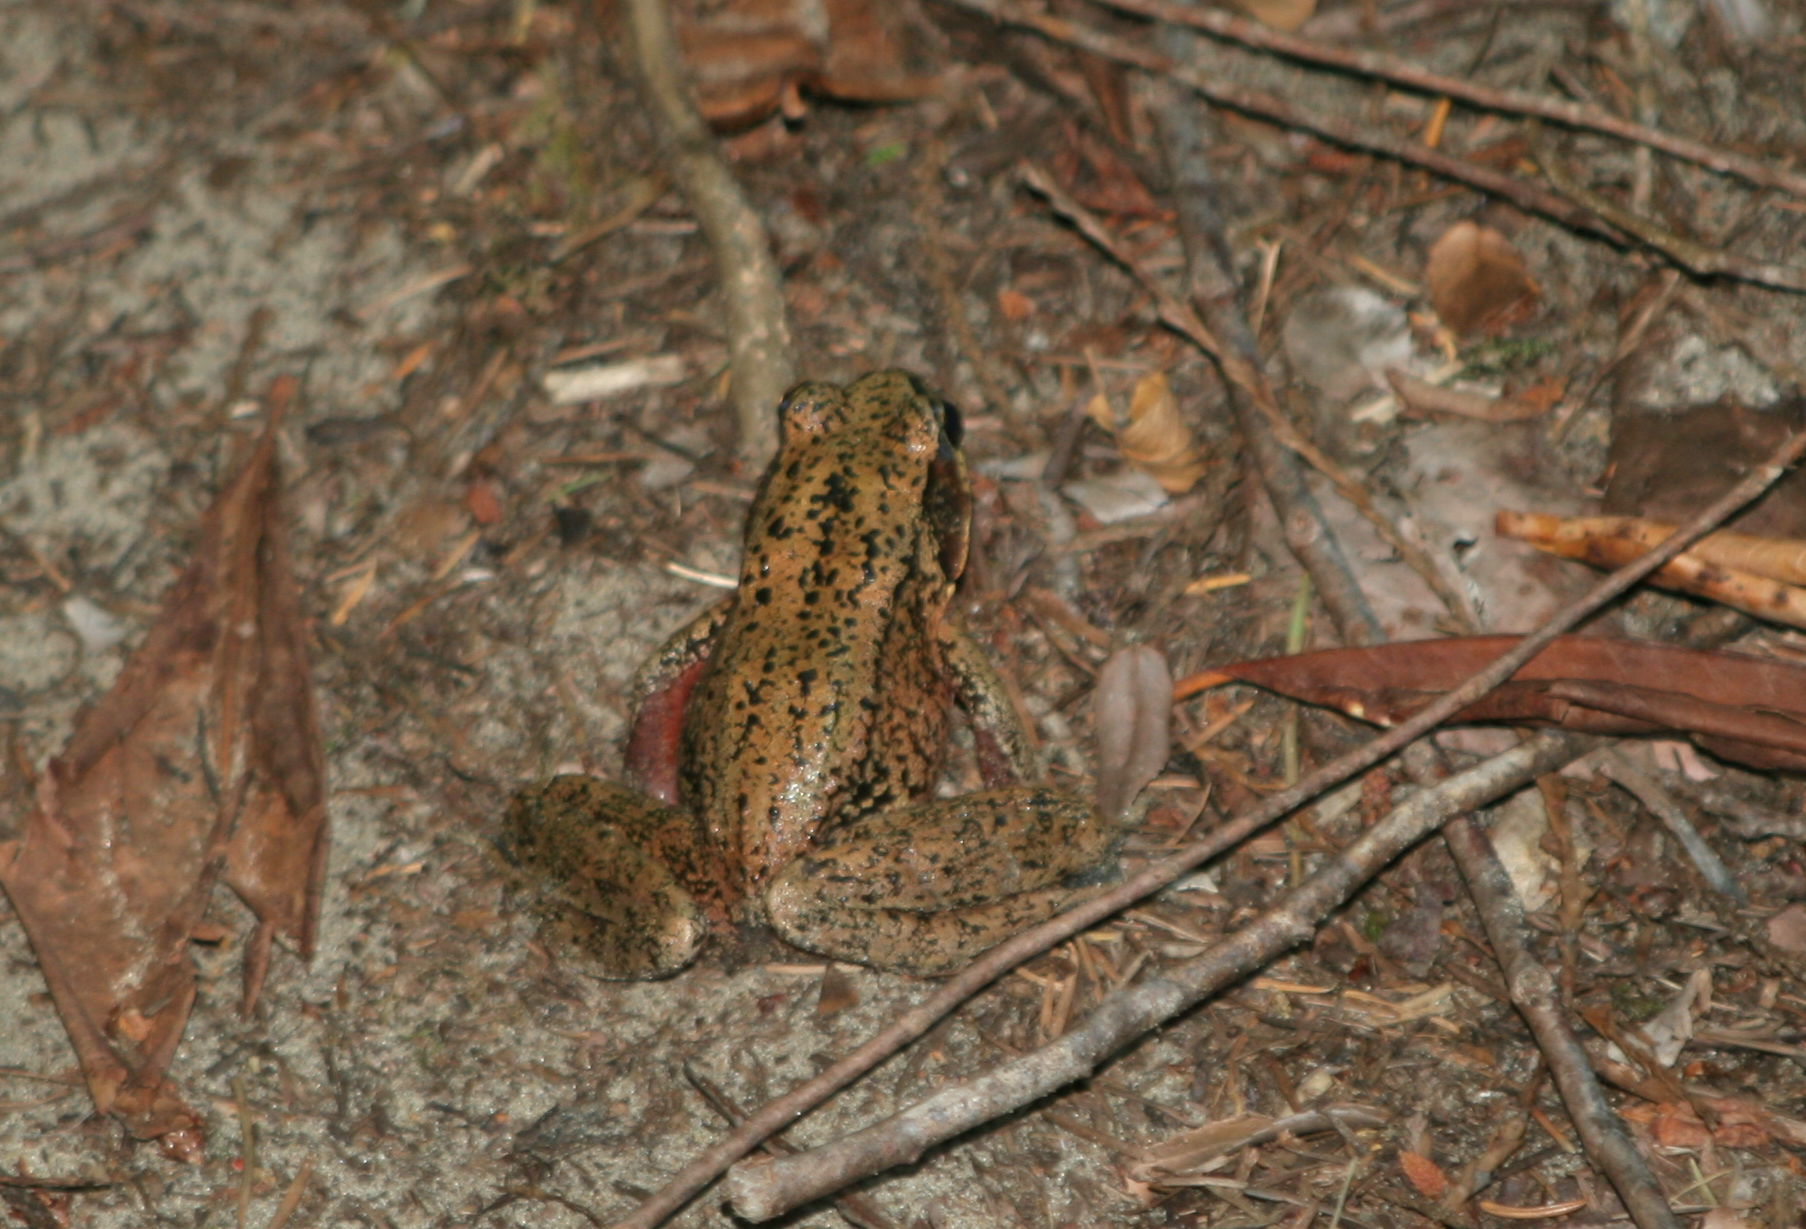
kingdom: Animalia
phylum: Chordata
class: Amphibia
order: Anura
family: Ranidae
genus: Rana
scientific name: Rana aurora
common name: Red-legged frog
